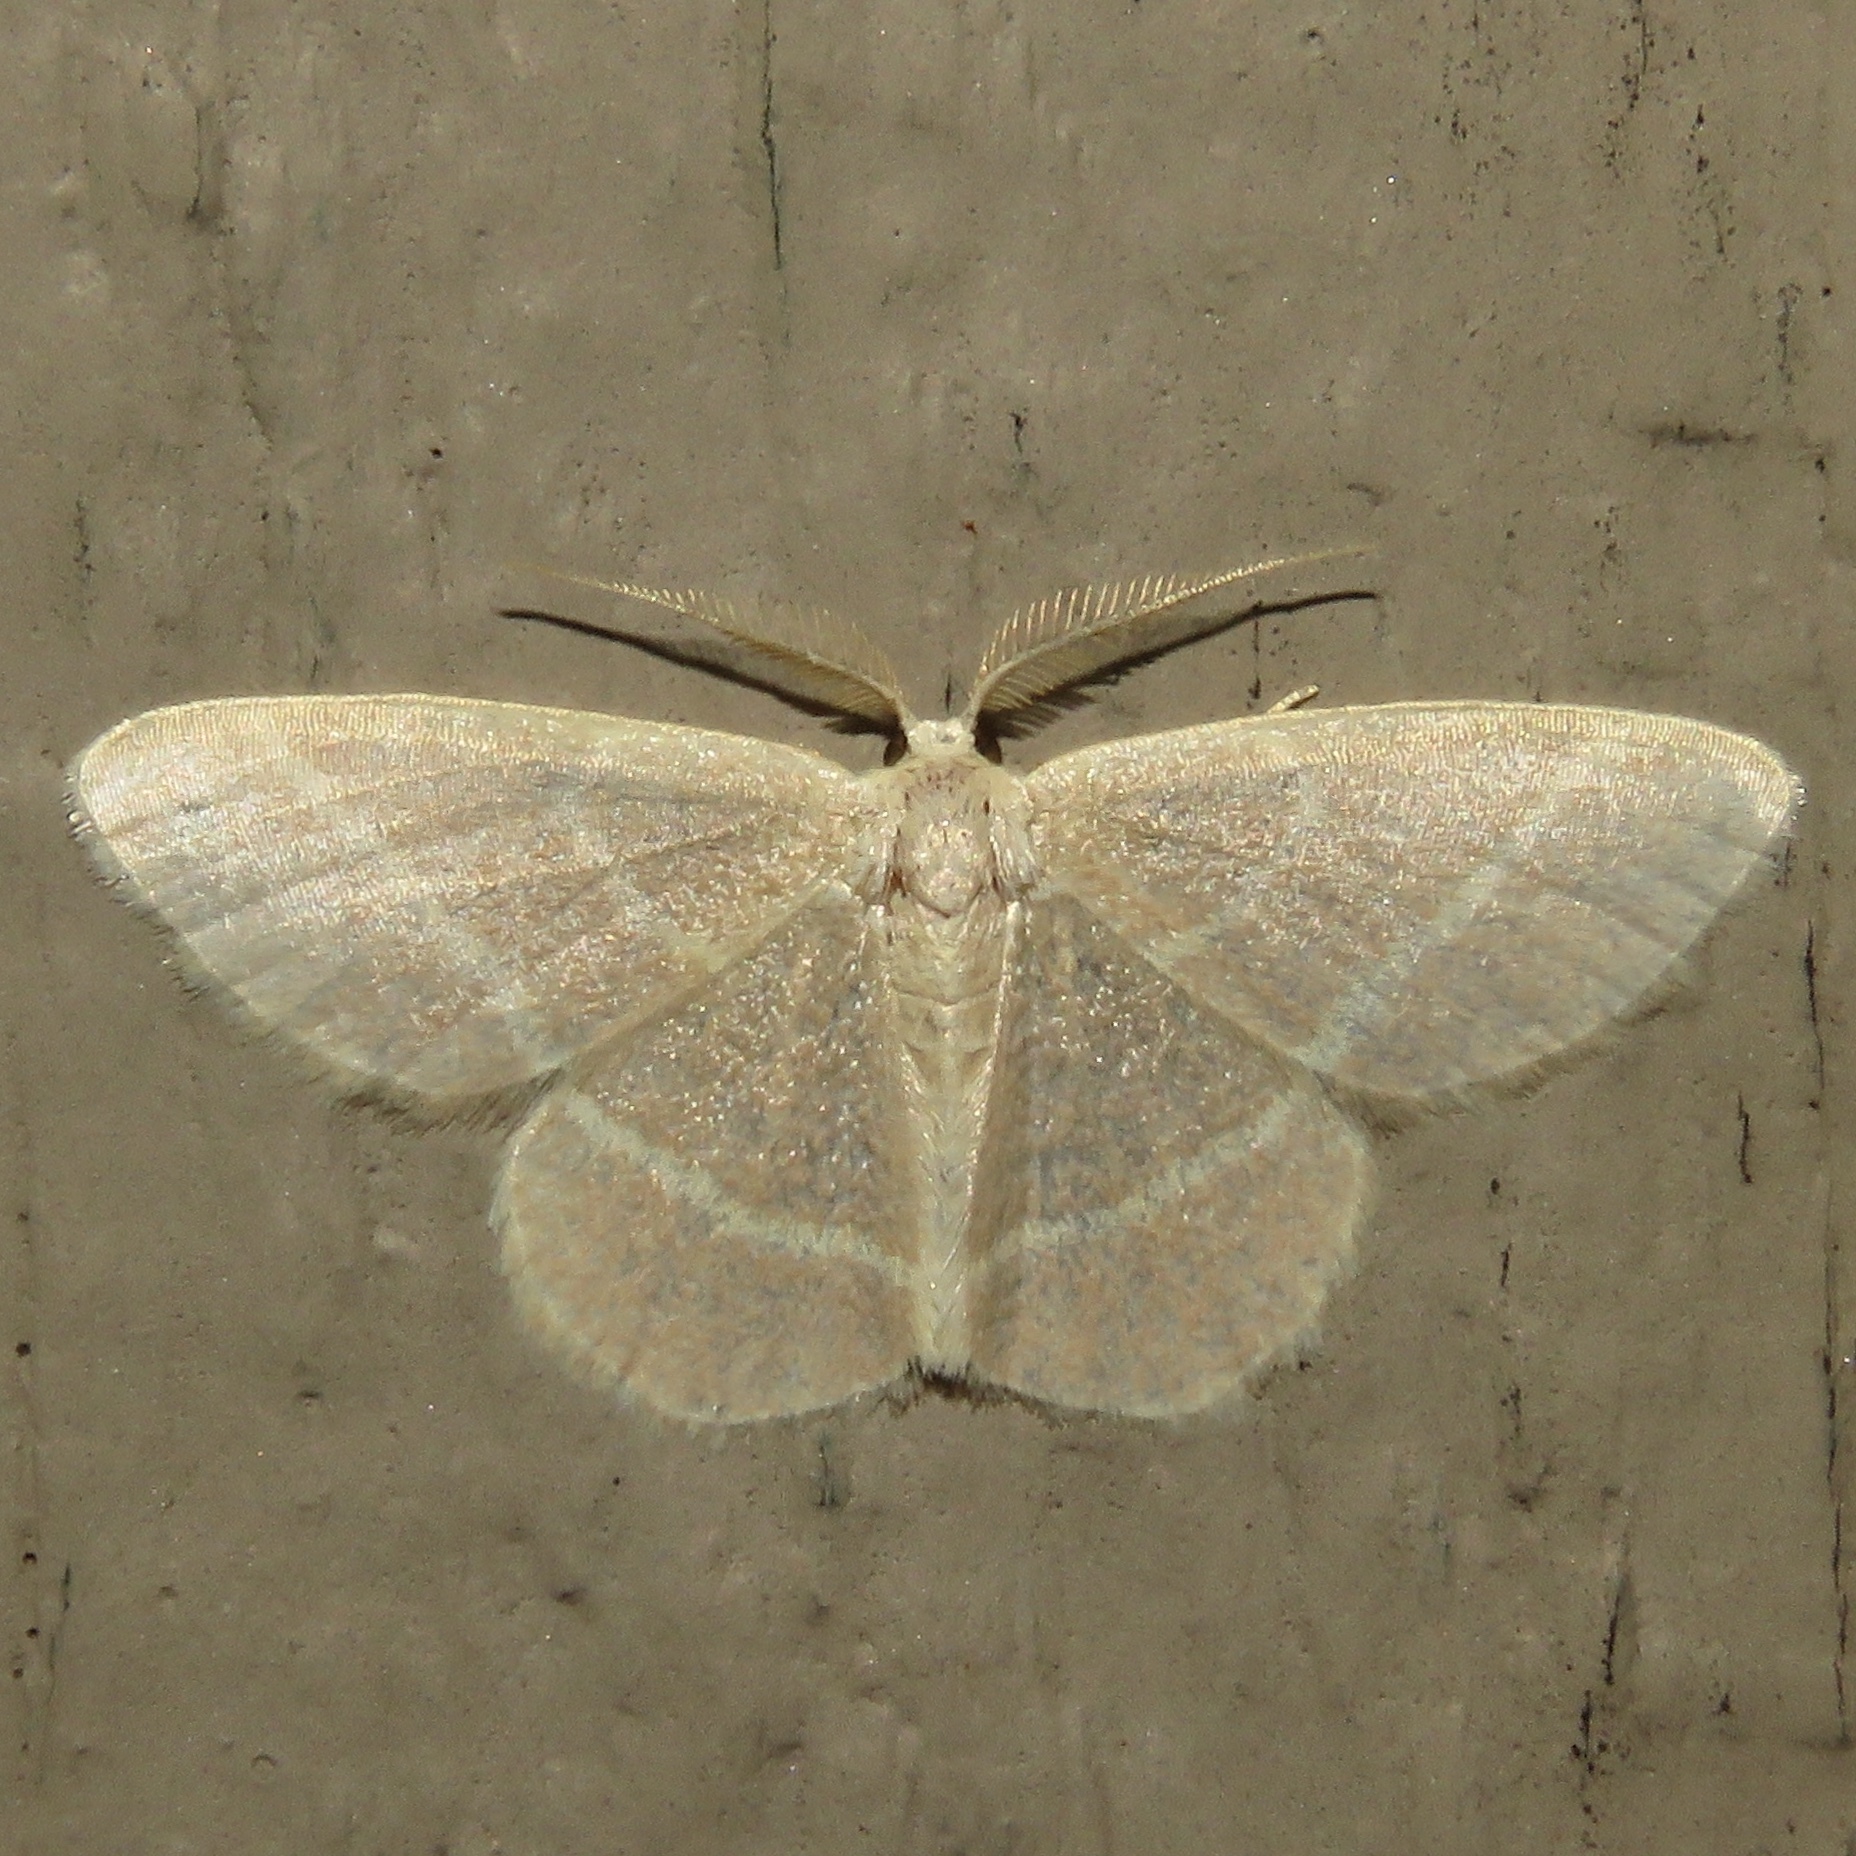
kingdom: Animalia
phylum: Arthropoda
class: Insecta
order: Lepidoptera
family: Geometridae
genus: Chlorochlamys
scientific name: Chlorochlamys chloroleucaria
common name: Blackberry looper
